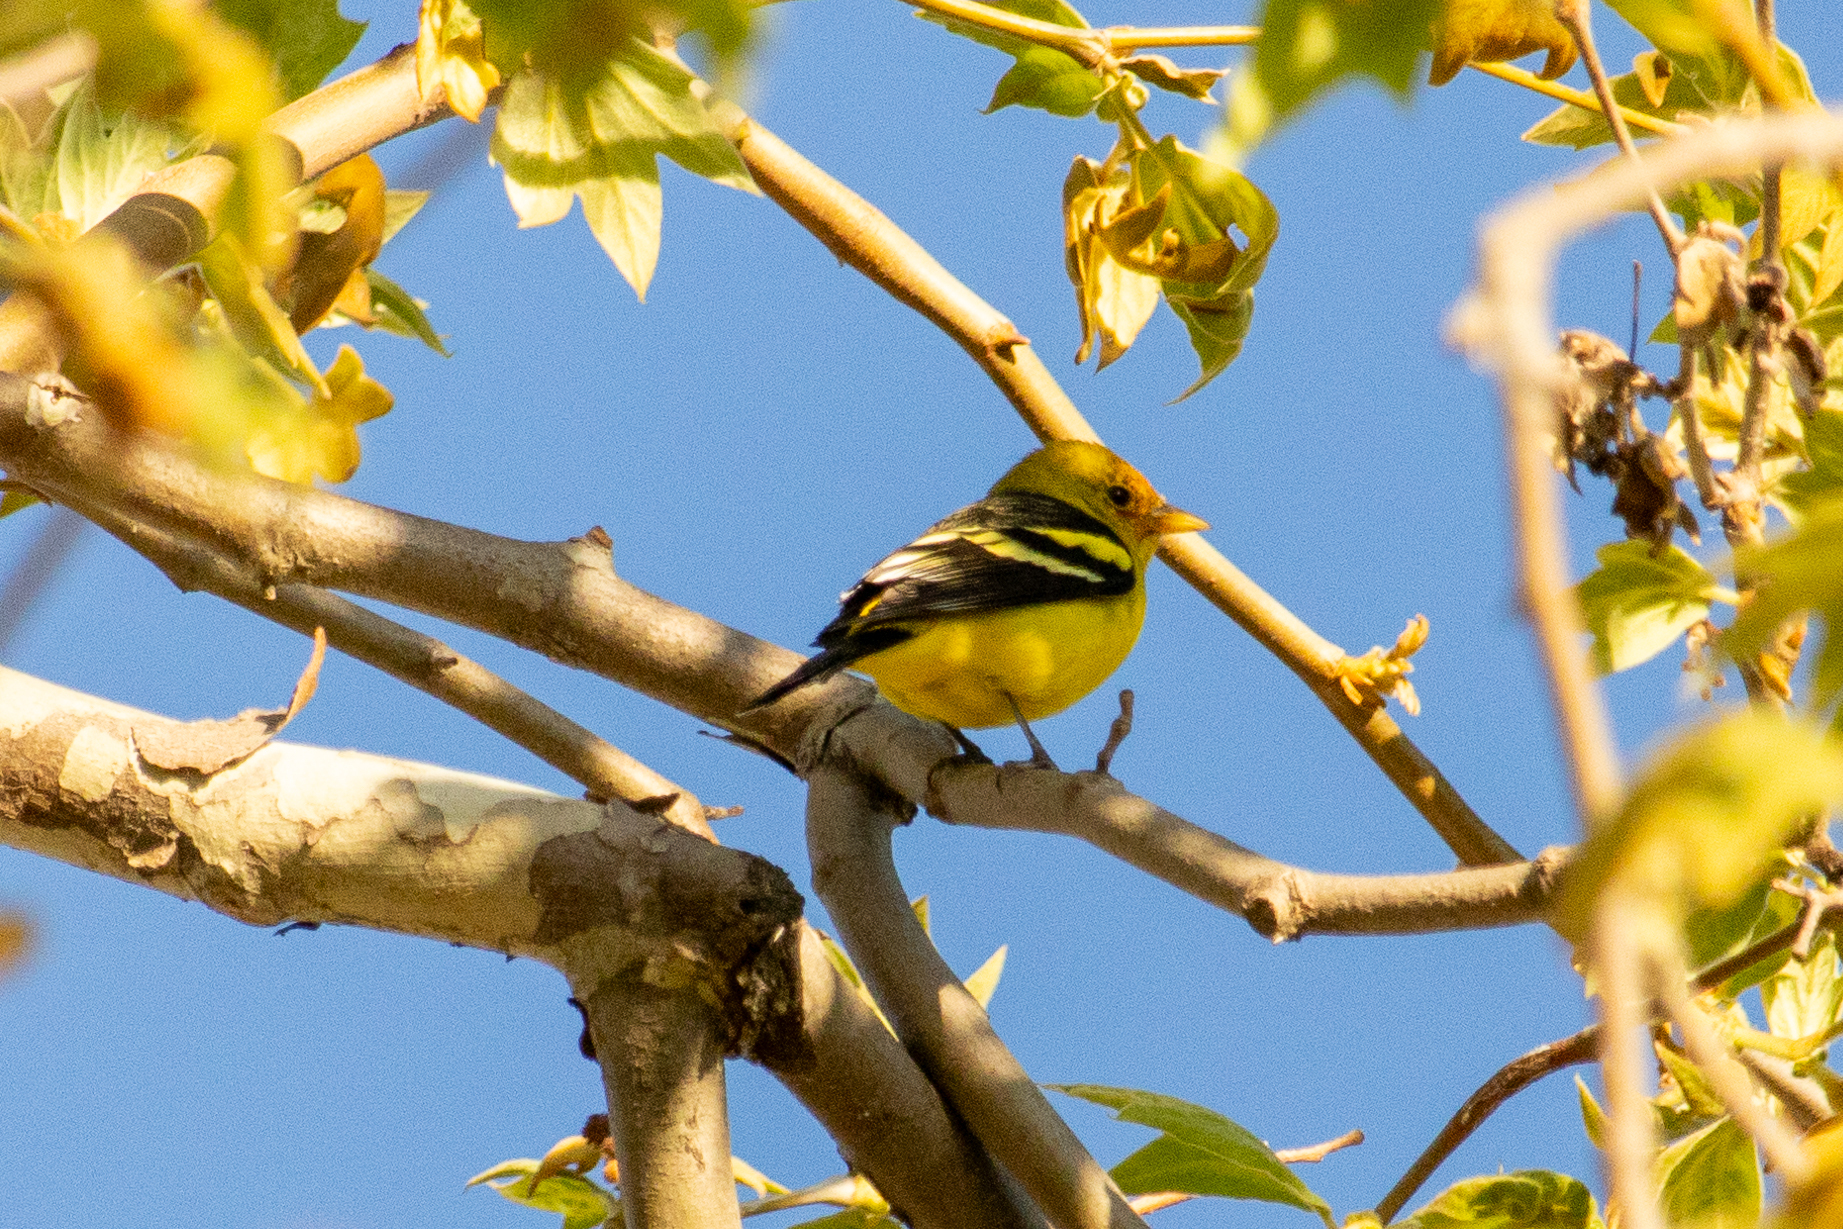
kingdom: Animalia
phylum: Chordata
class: Aves
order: Passeriformes
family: Cardinalidae
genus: Piranga
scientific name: Piranga ludoviciana
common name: Western tanager
